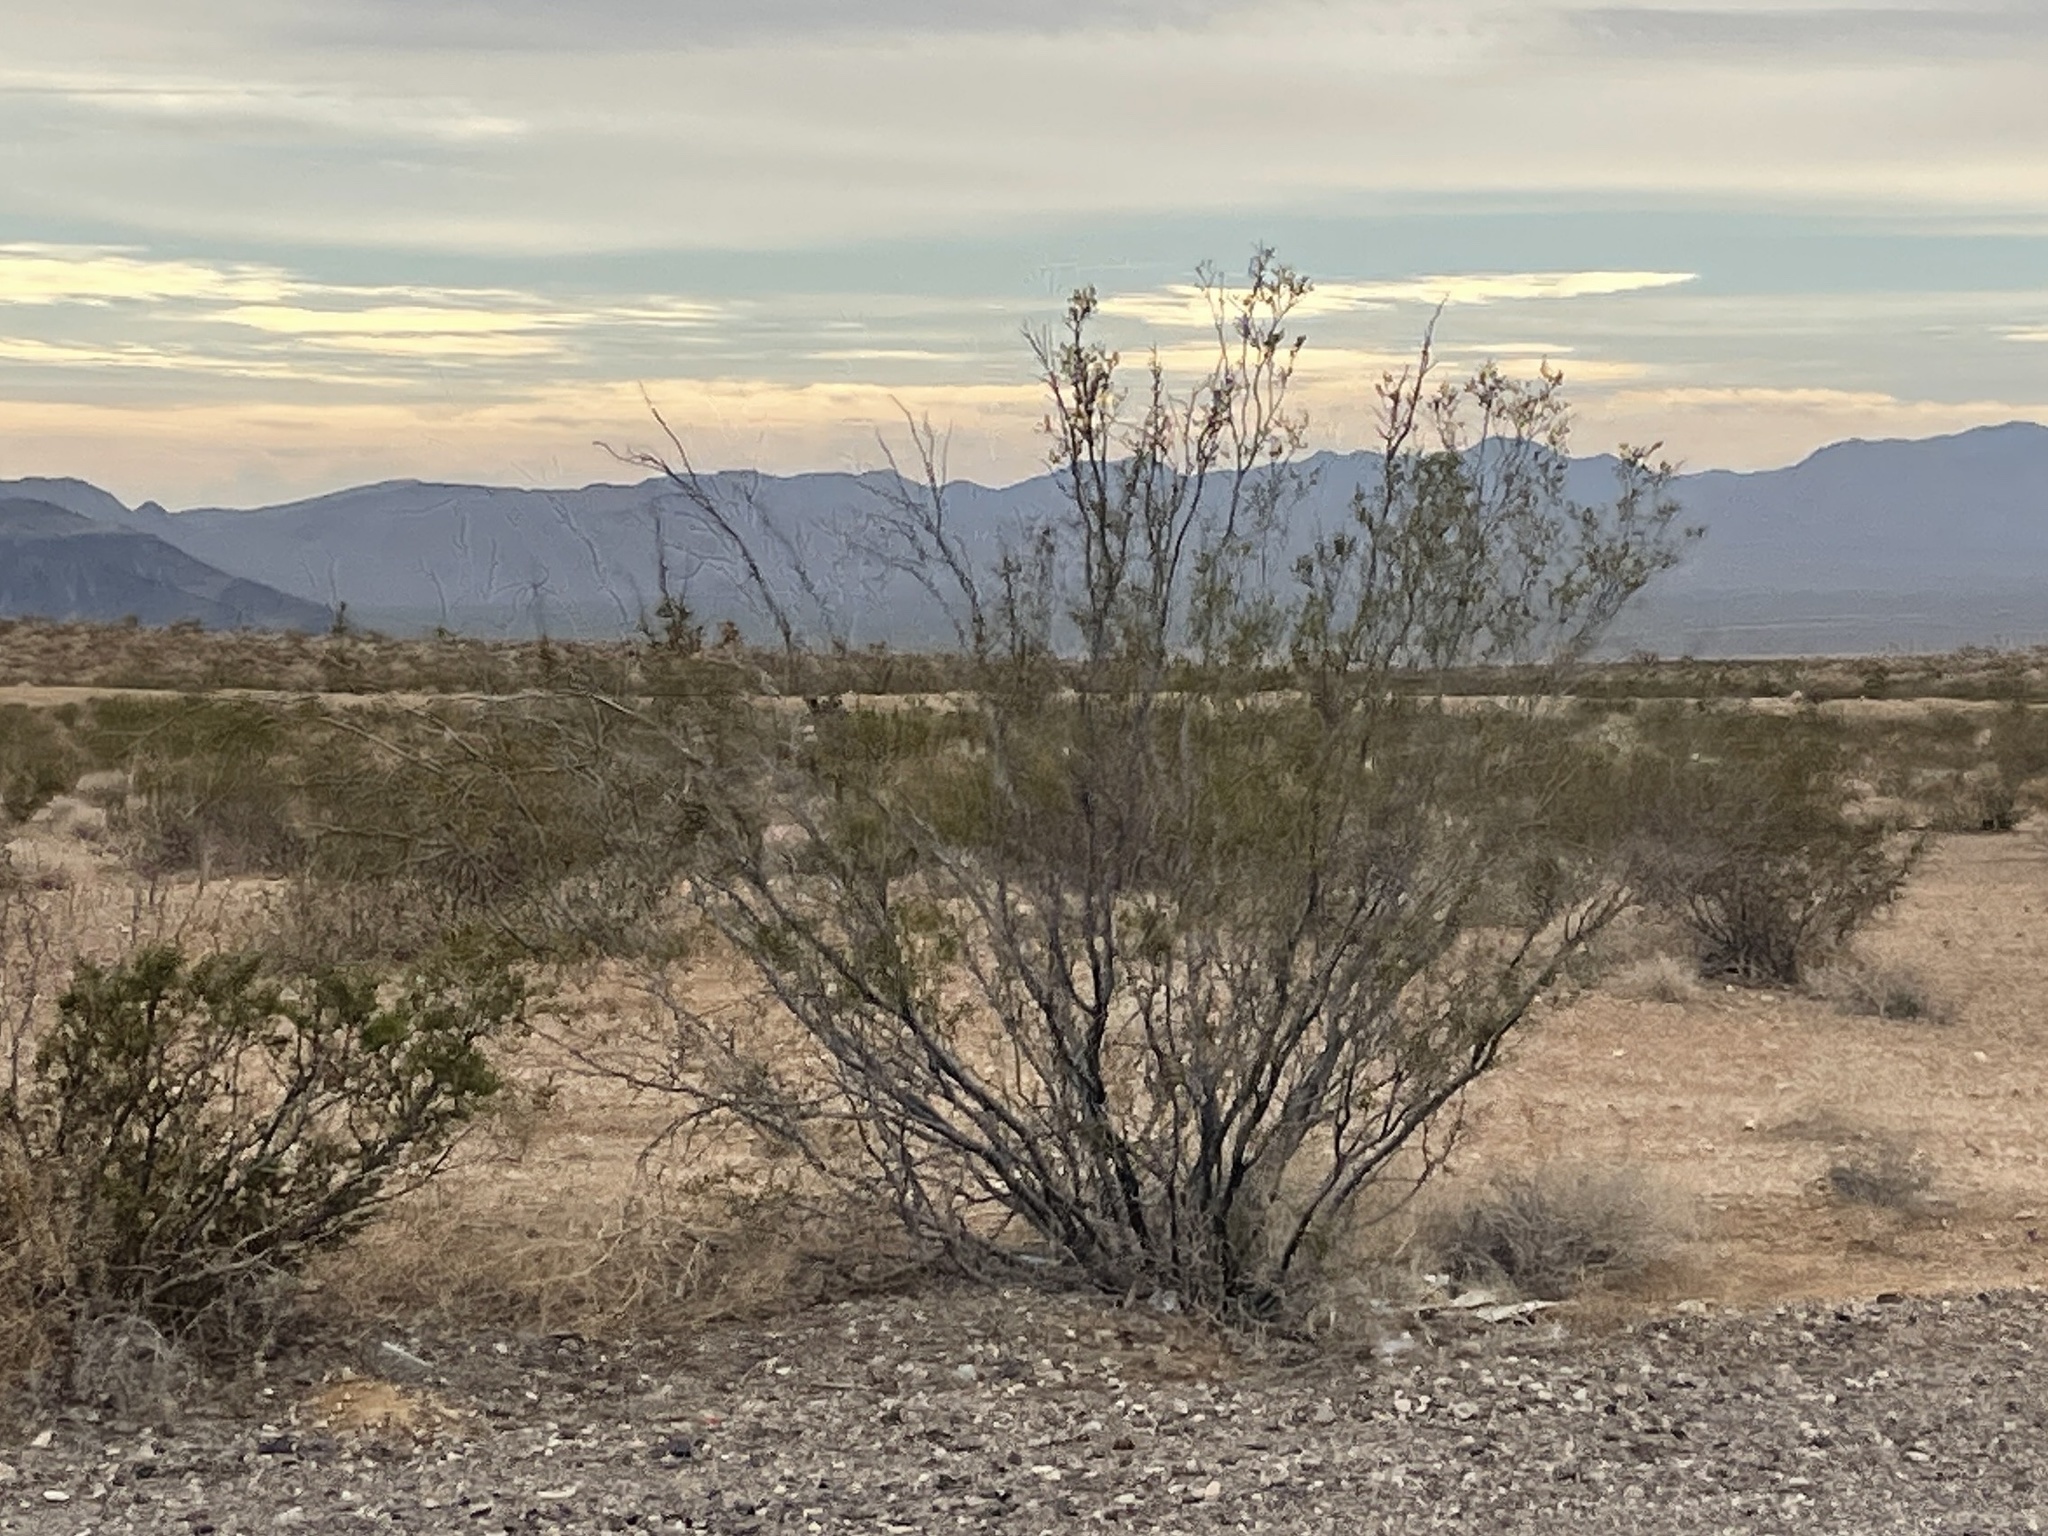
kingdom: Plantae
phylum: Tracheophyta
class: Magnoliopsida
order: Zygophyllales
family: Zygophyllaceae
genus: Larrea
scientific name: Larrea tridentata
